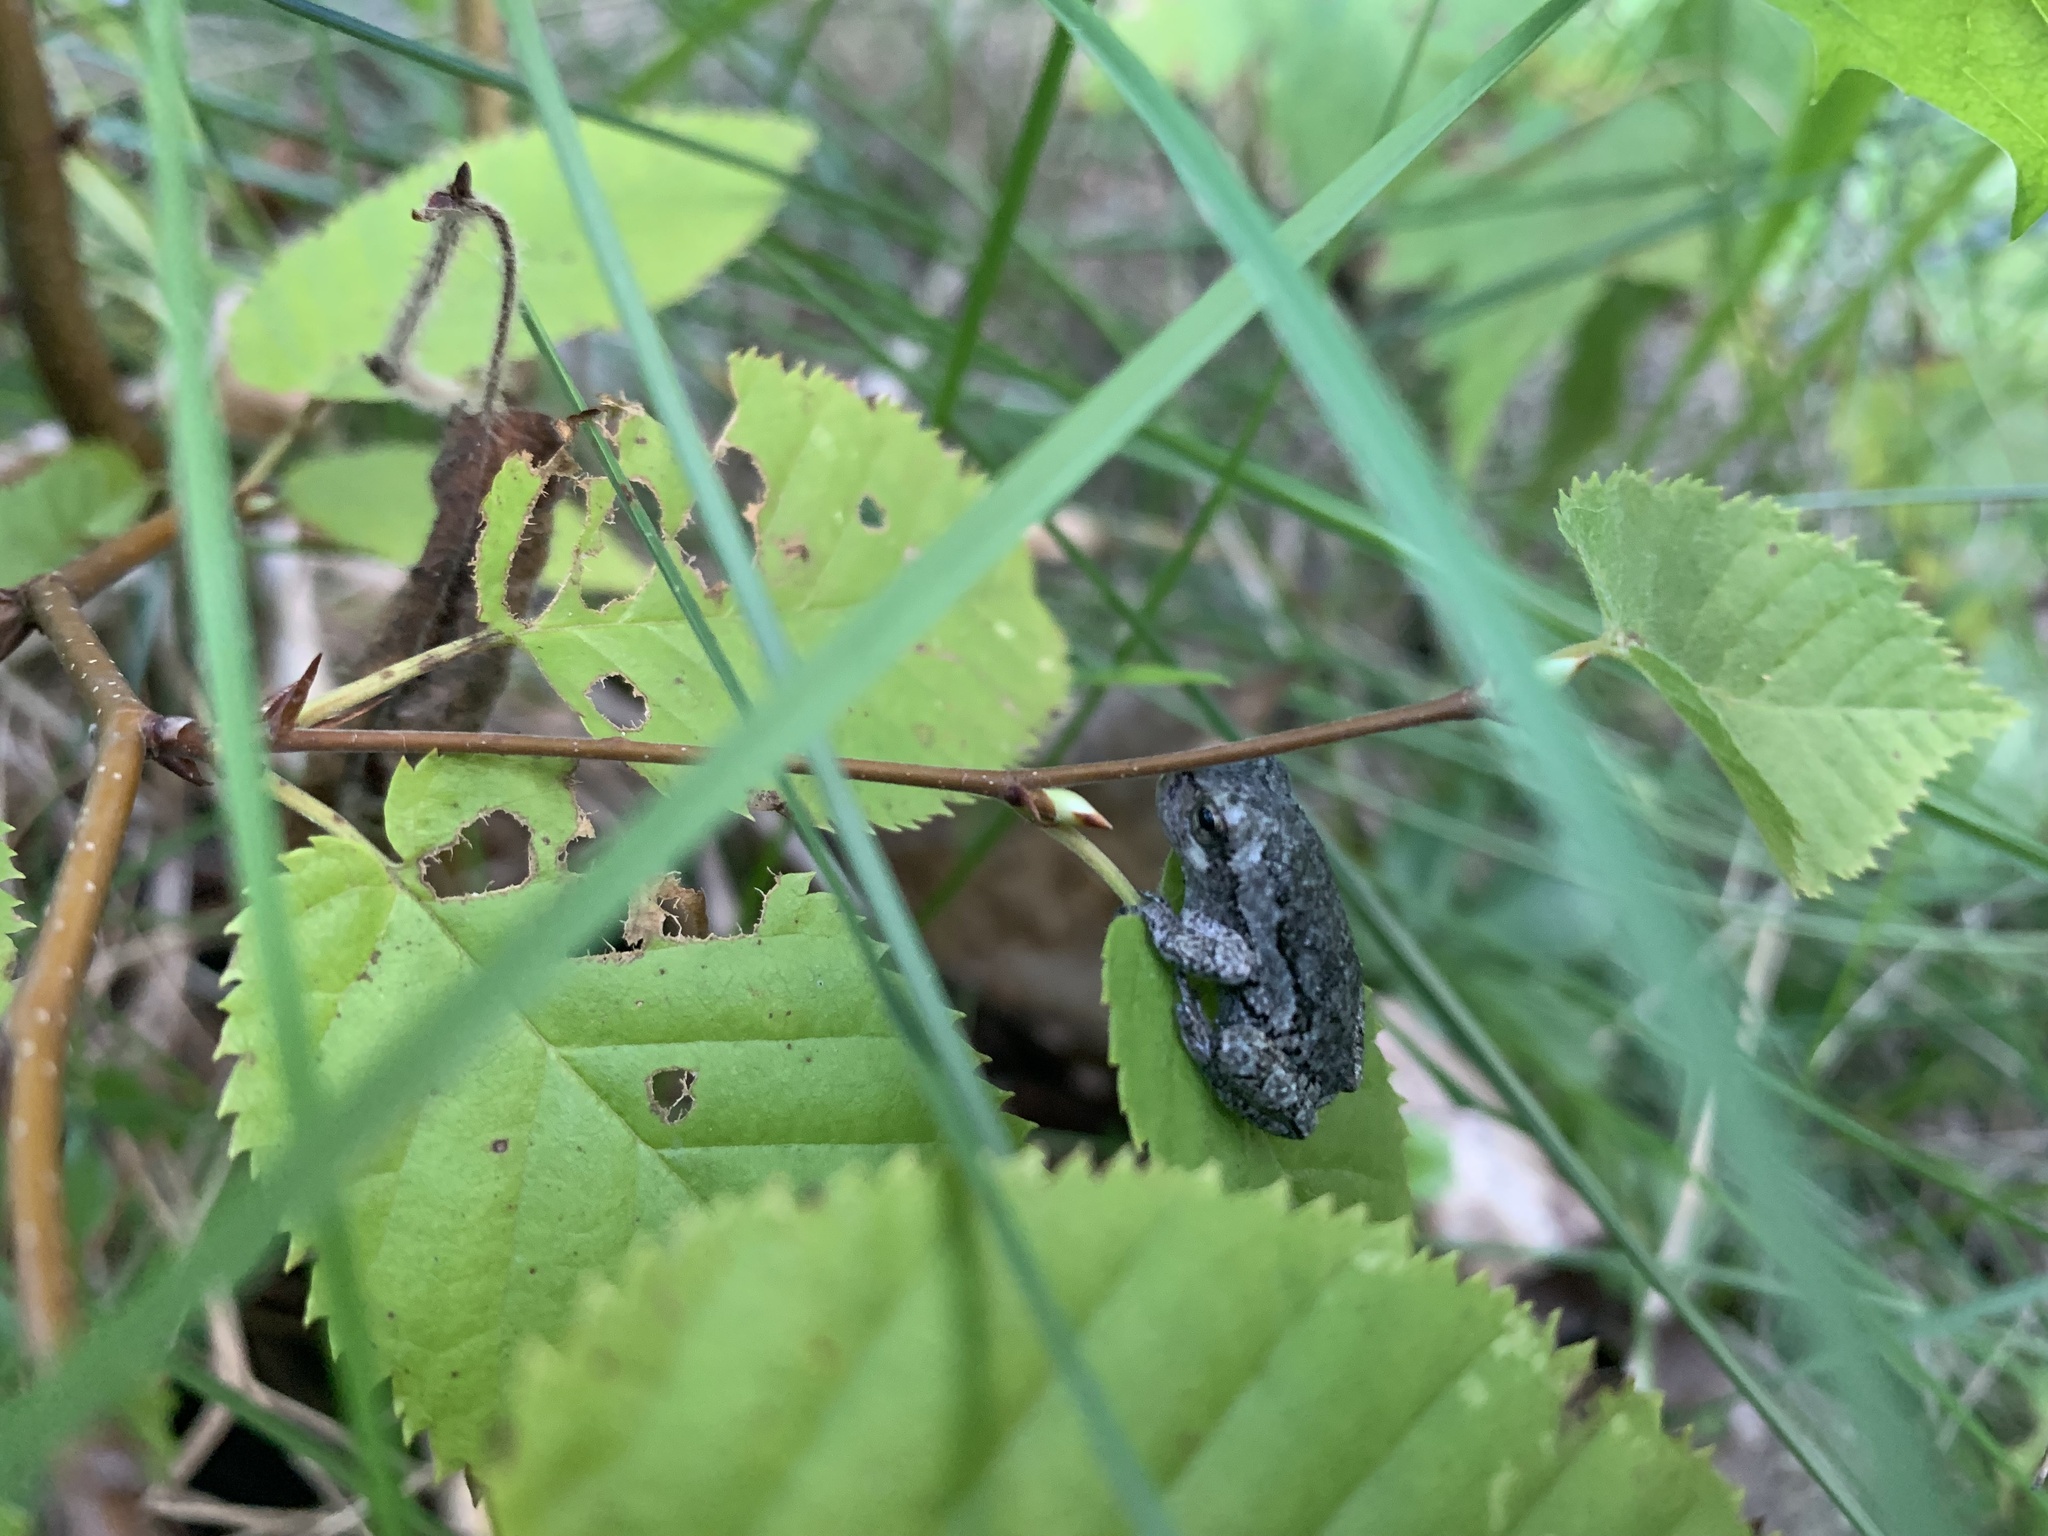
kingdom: Animalia
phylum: Chordata
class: Amphibia
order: Anura
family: Hylidae
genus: Dryophytes
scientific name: Dryophytes versicolor
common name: Gray treefrog
